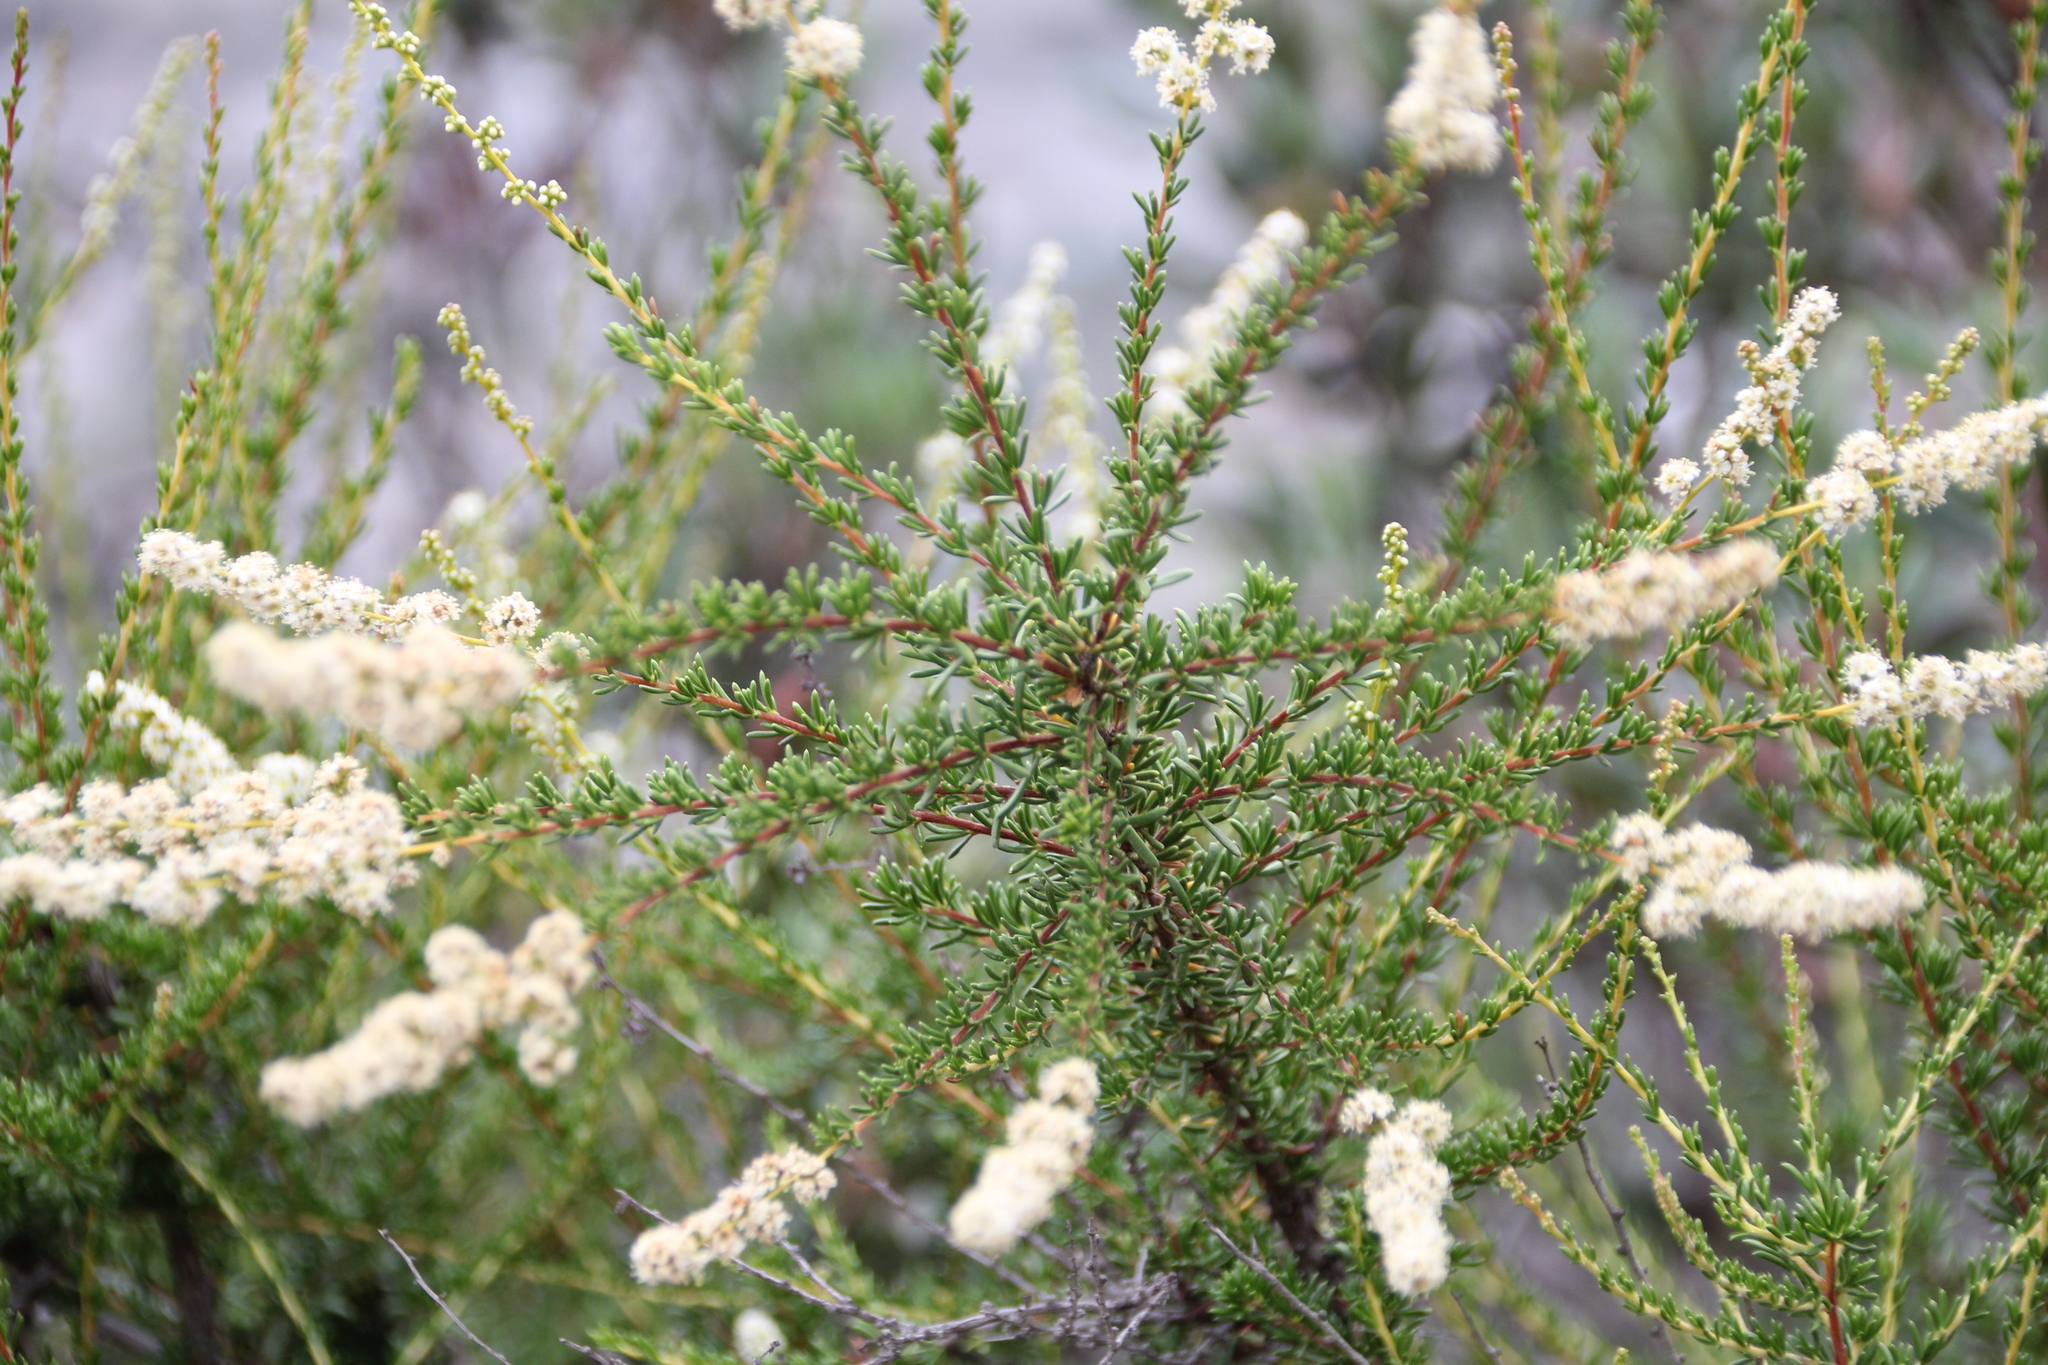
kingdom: Plantae
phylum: Tracheophyta
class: Magnoliopsida
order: Rosales
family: Rosaceae
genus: Adenostoma
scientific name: Adenostoma fasciculatum
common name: Chamise
